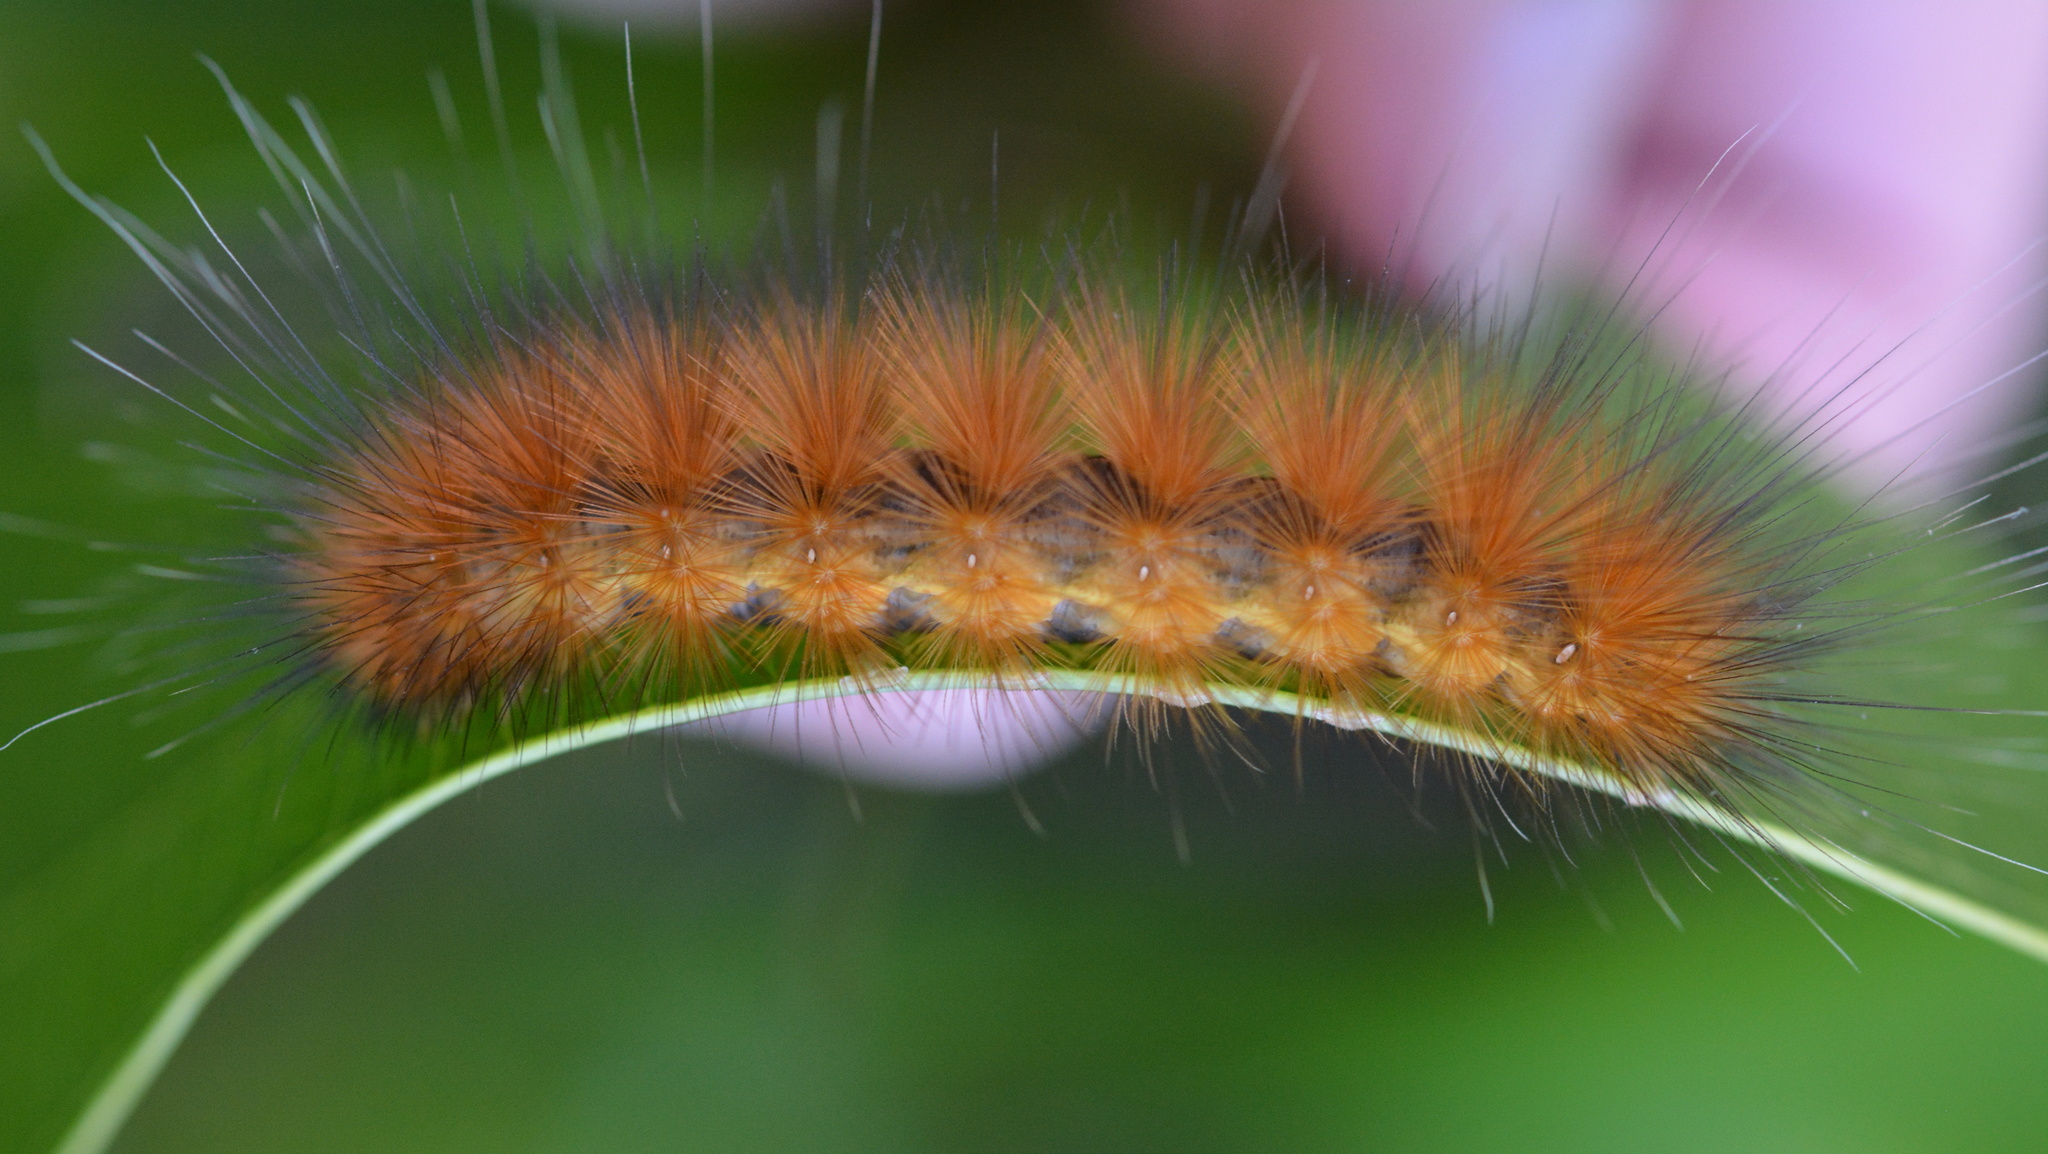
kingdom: Animalia
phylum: Arthropoda
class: Insecta
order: Lepidoptera
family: Erebidae
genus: Spilosoma
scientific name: Spilosoma virginica
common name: Virginia tiger moth
